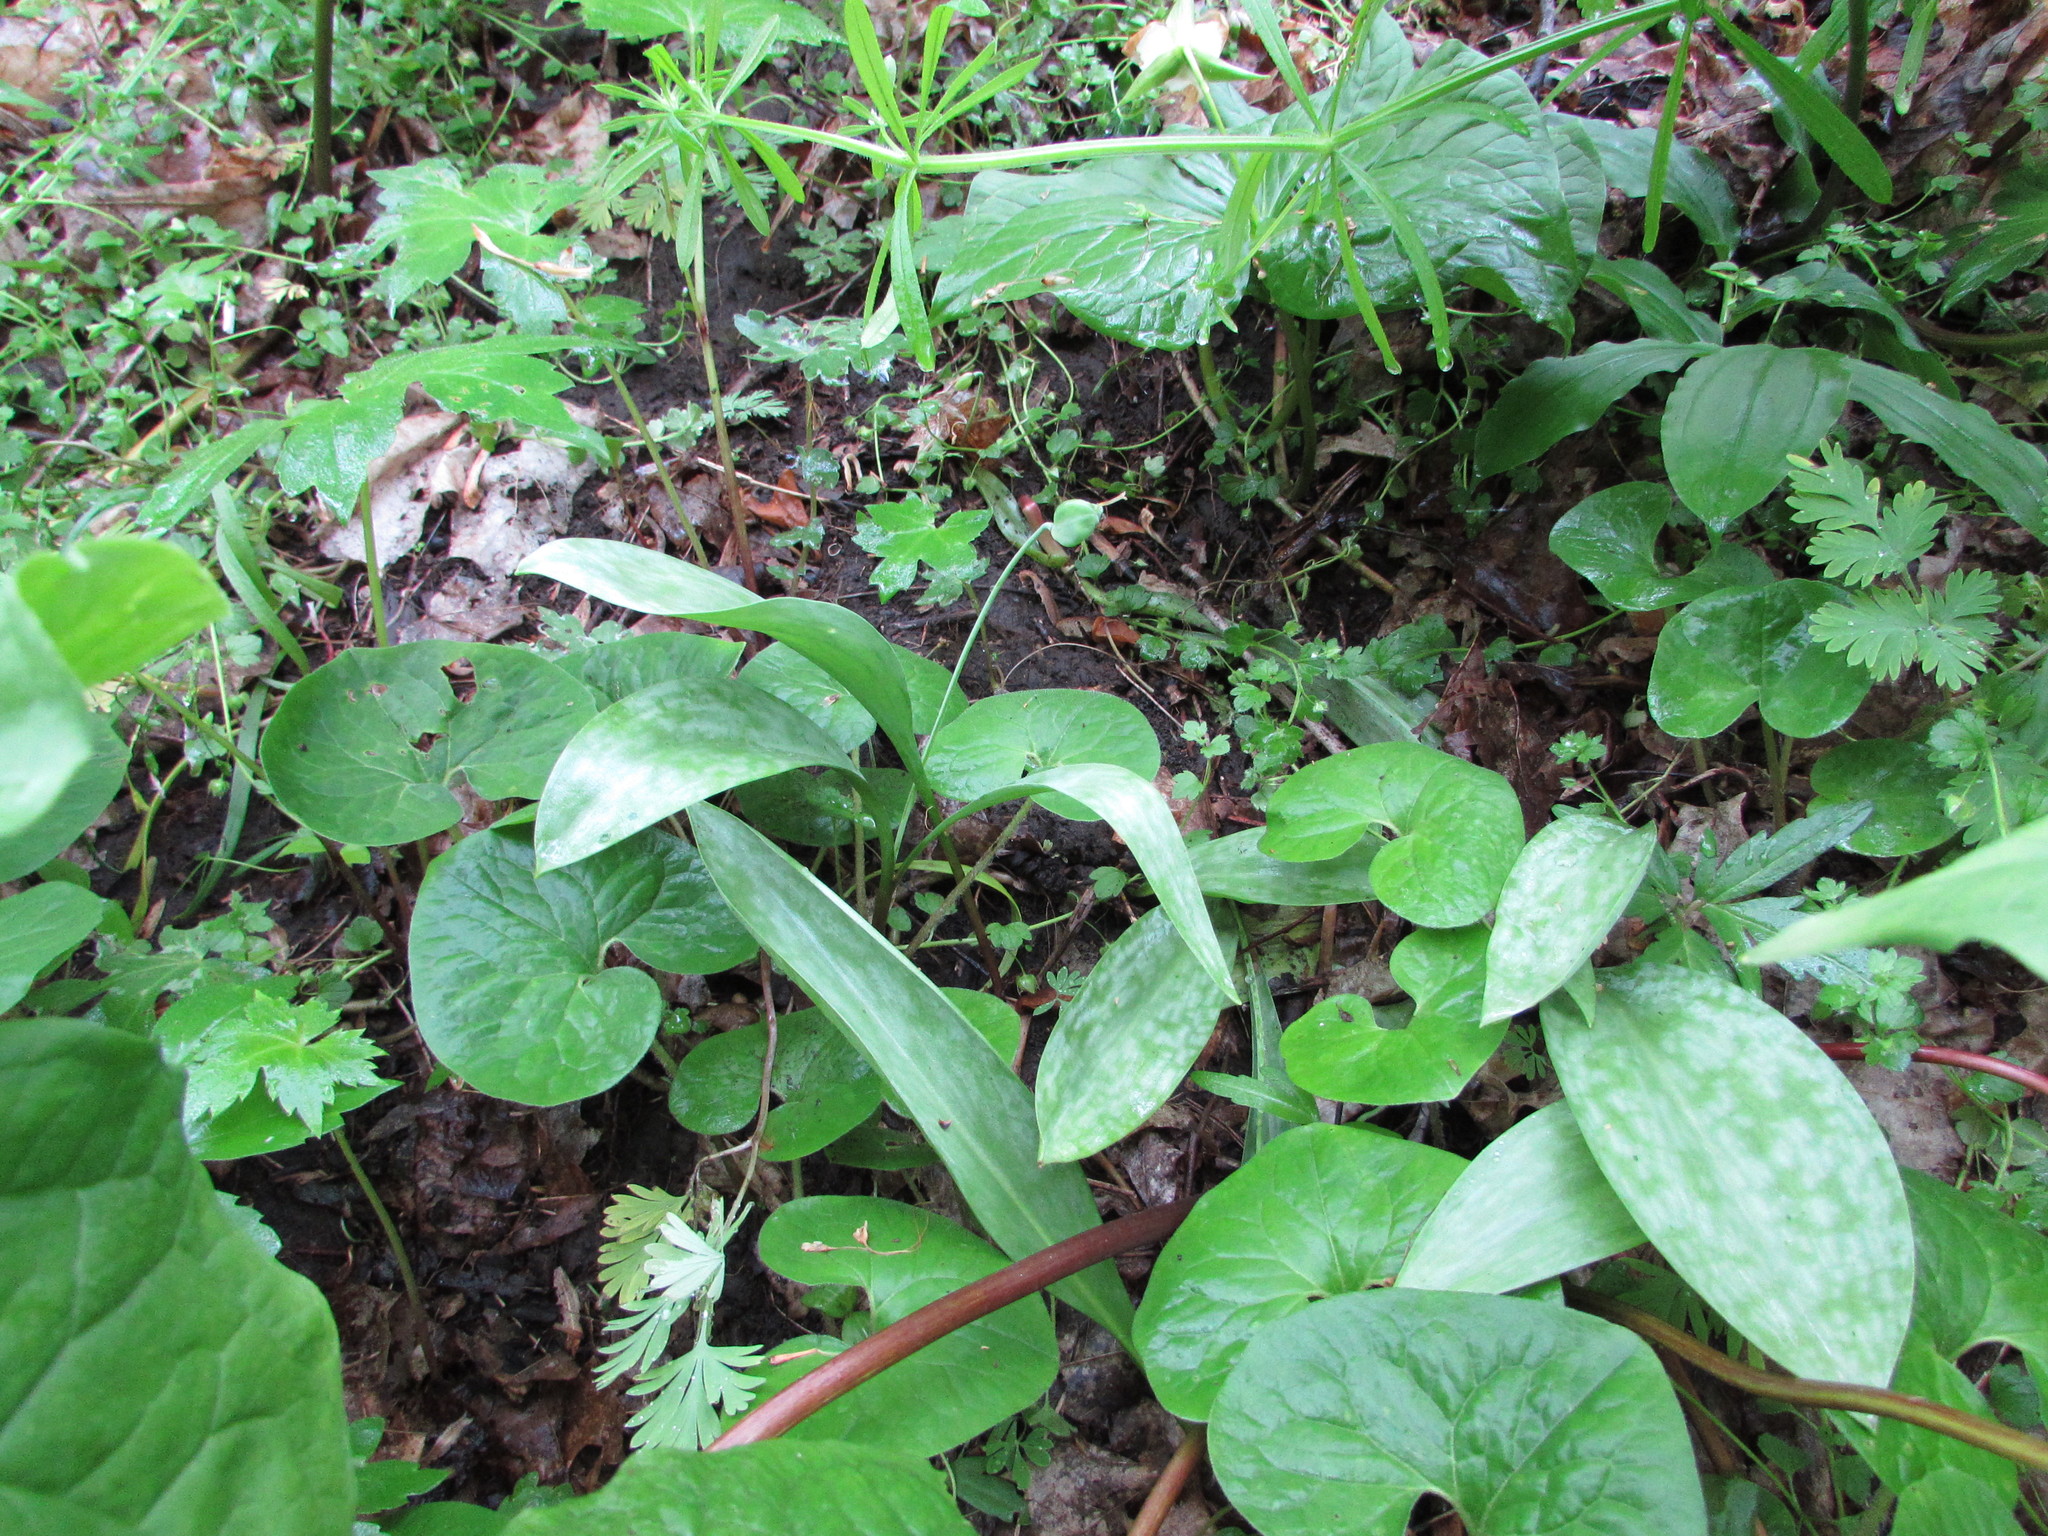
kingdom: Plantae
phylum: Tracheophyta
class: Liliopsida
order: Liliales
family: Liliaceae
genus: Erythronium
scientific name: Erythronium albidum
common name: White trout-lily
